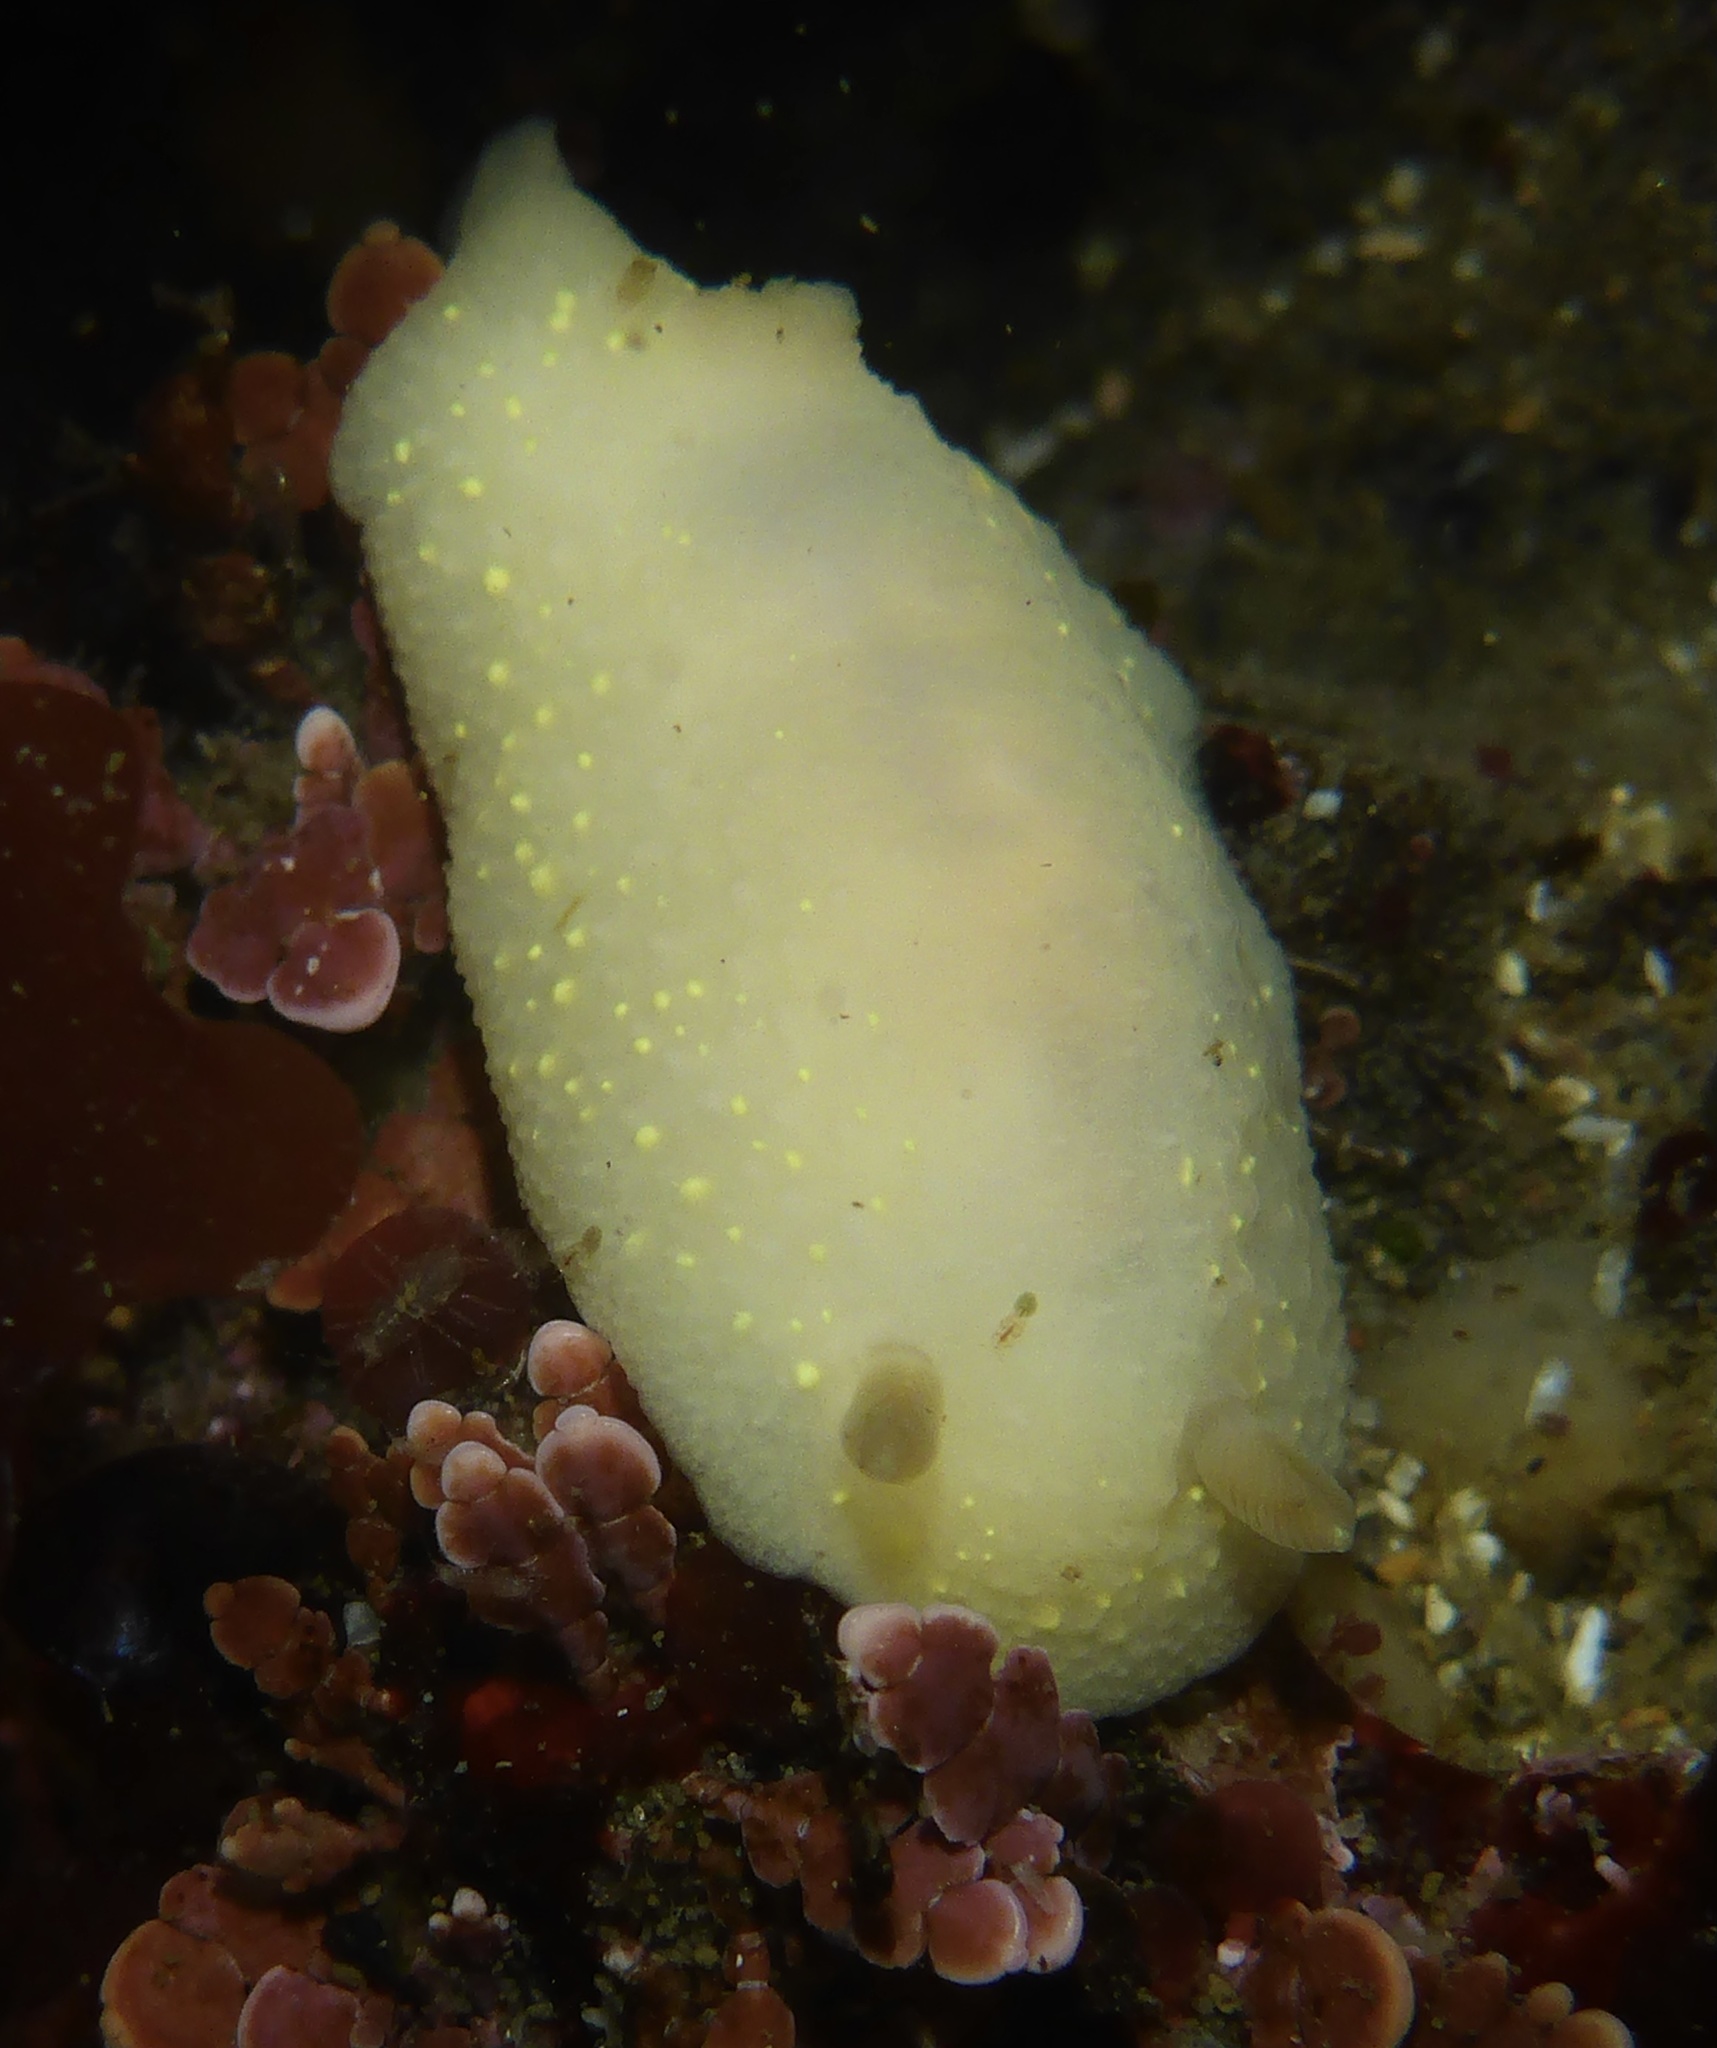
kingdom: Animalia
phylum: Mollusca
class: Gastropoda
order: Nudibranchia
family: Cadlinidae
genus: Cadlina
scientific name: Cadlina modesta
